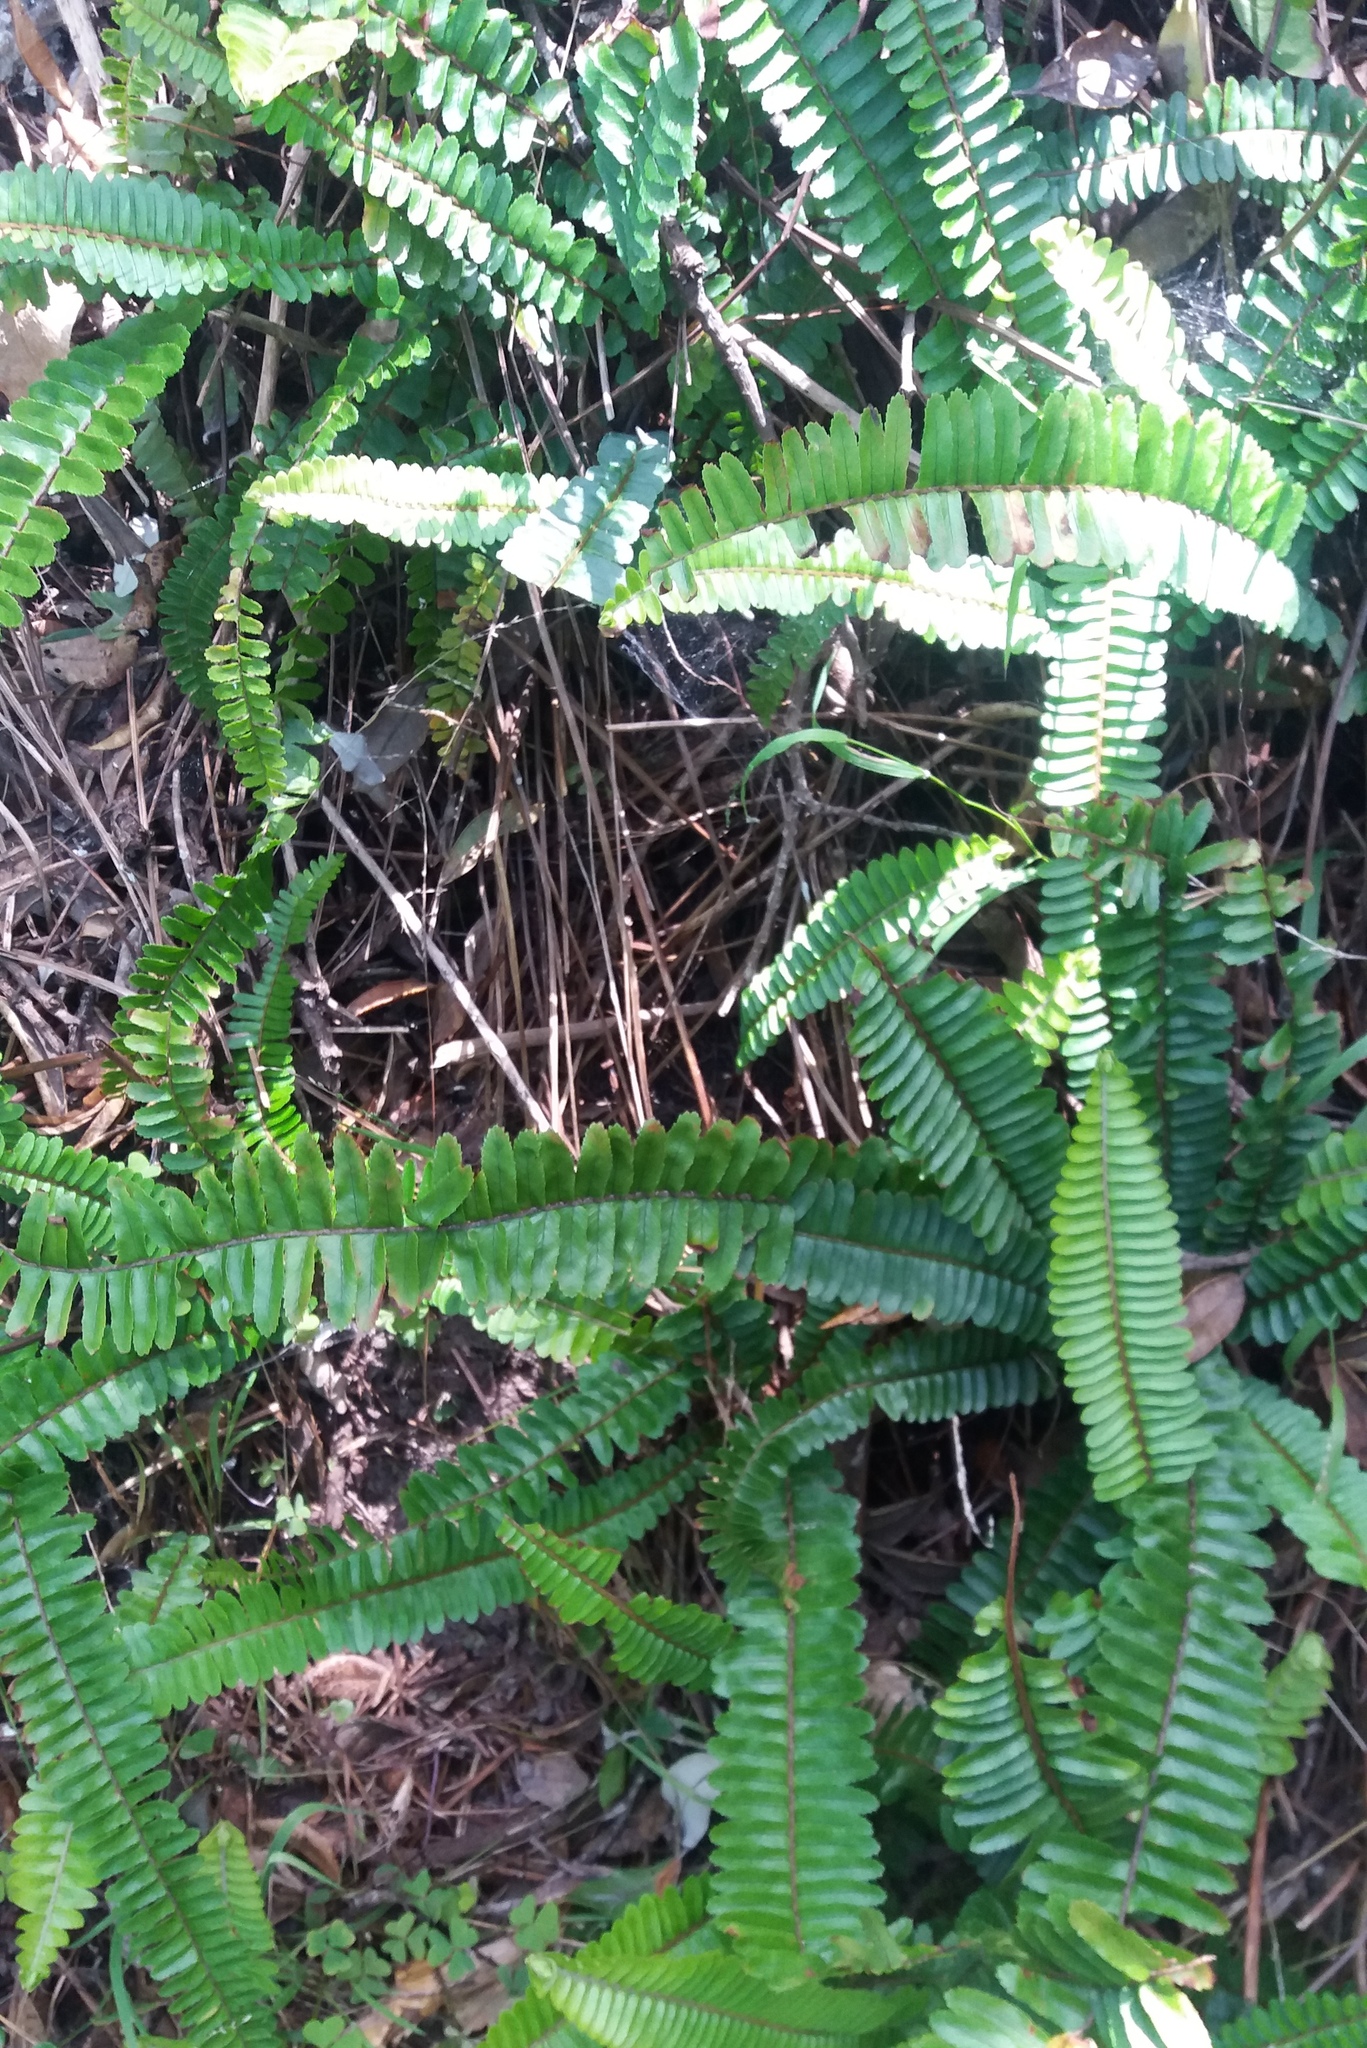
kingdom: Plantae
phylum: Tracheophyta
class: Polypodiopsida
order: Polypodiales
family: Nephrolepidaceae
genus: Nephrolepis
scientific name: Nephrolepis cordifolia
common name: Narrow swordfern
